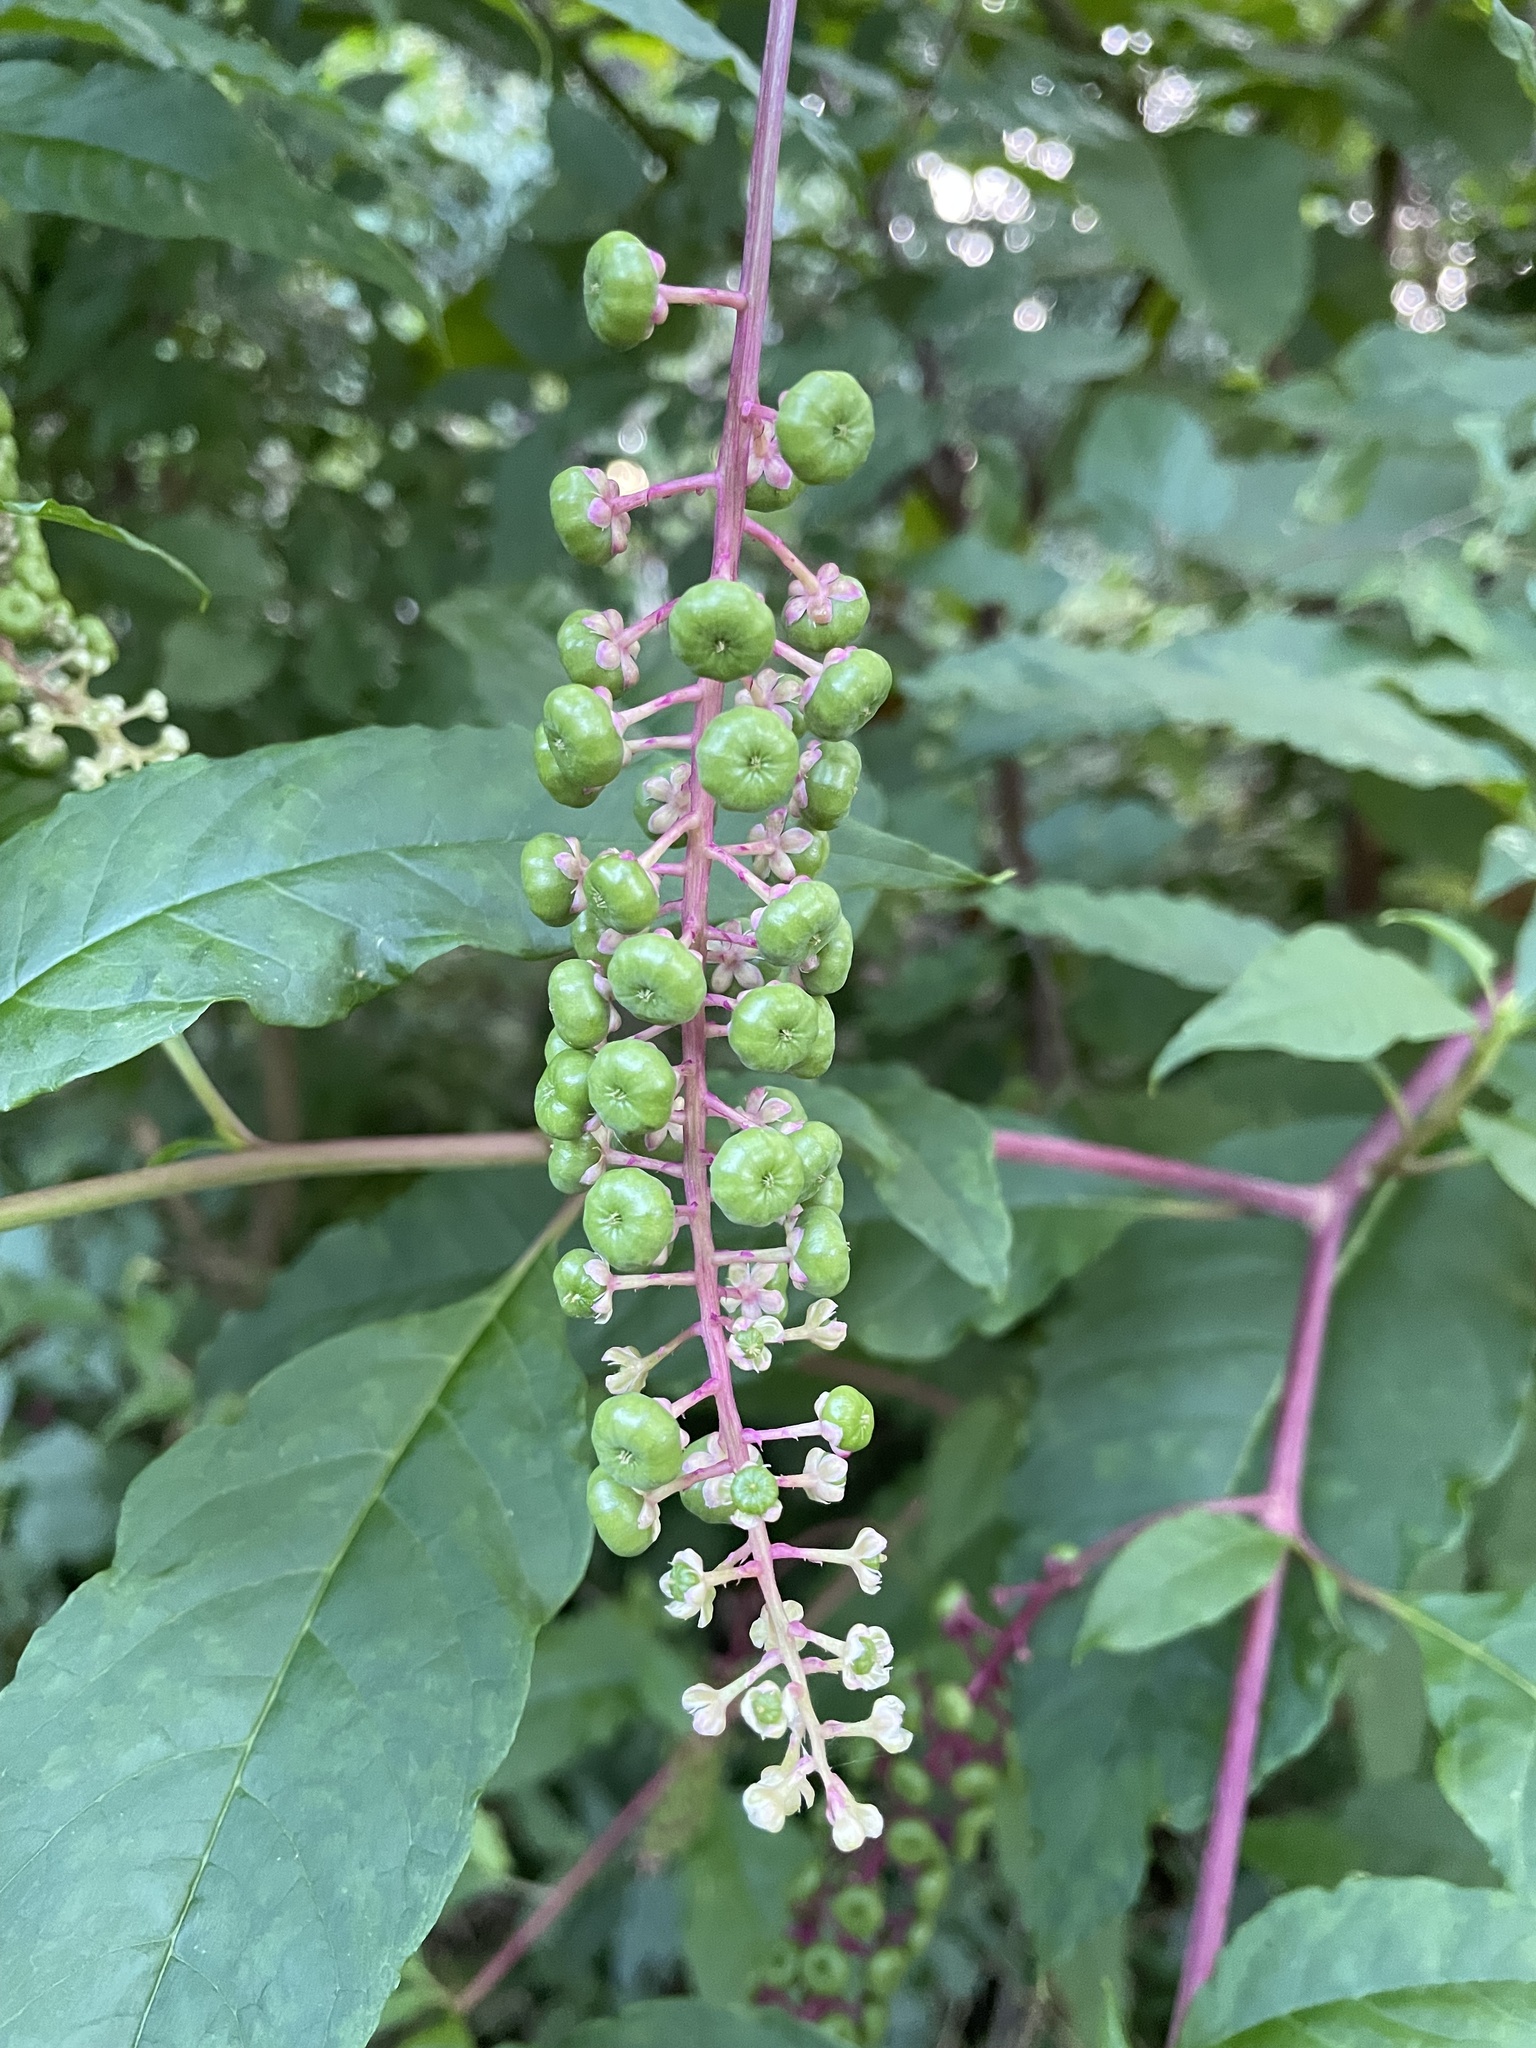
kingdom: Plantae
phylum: Tracheophyta
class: Magnoliopsida
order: Caryophyllales
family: Phytolaccaceae
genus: Phytolacca
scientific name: Phytolacca americana
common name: American pokeweed
